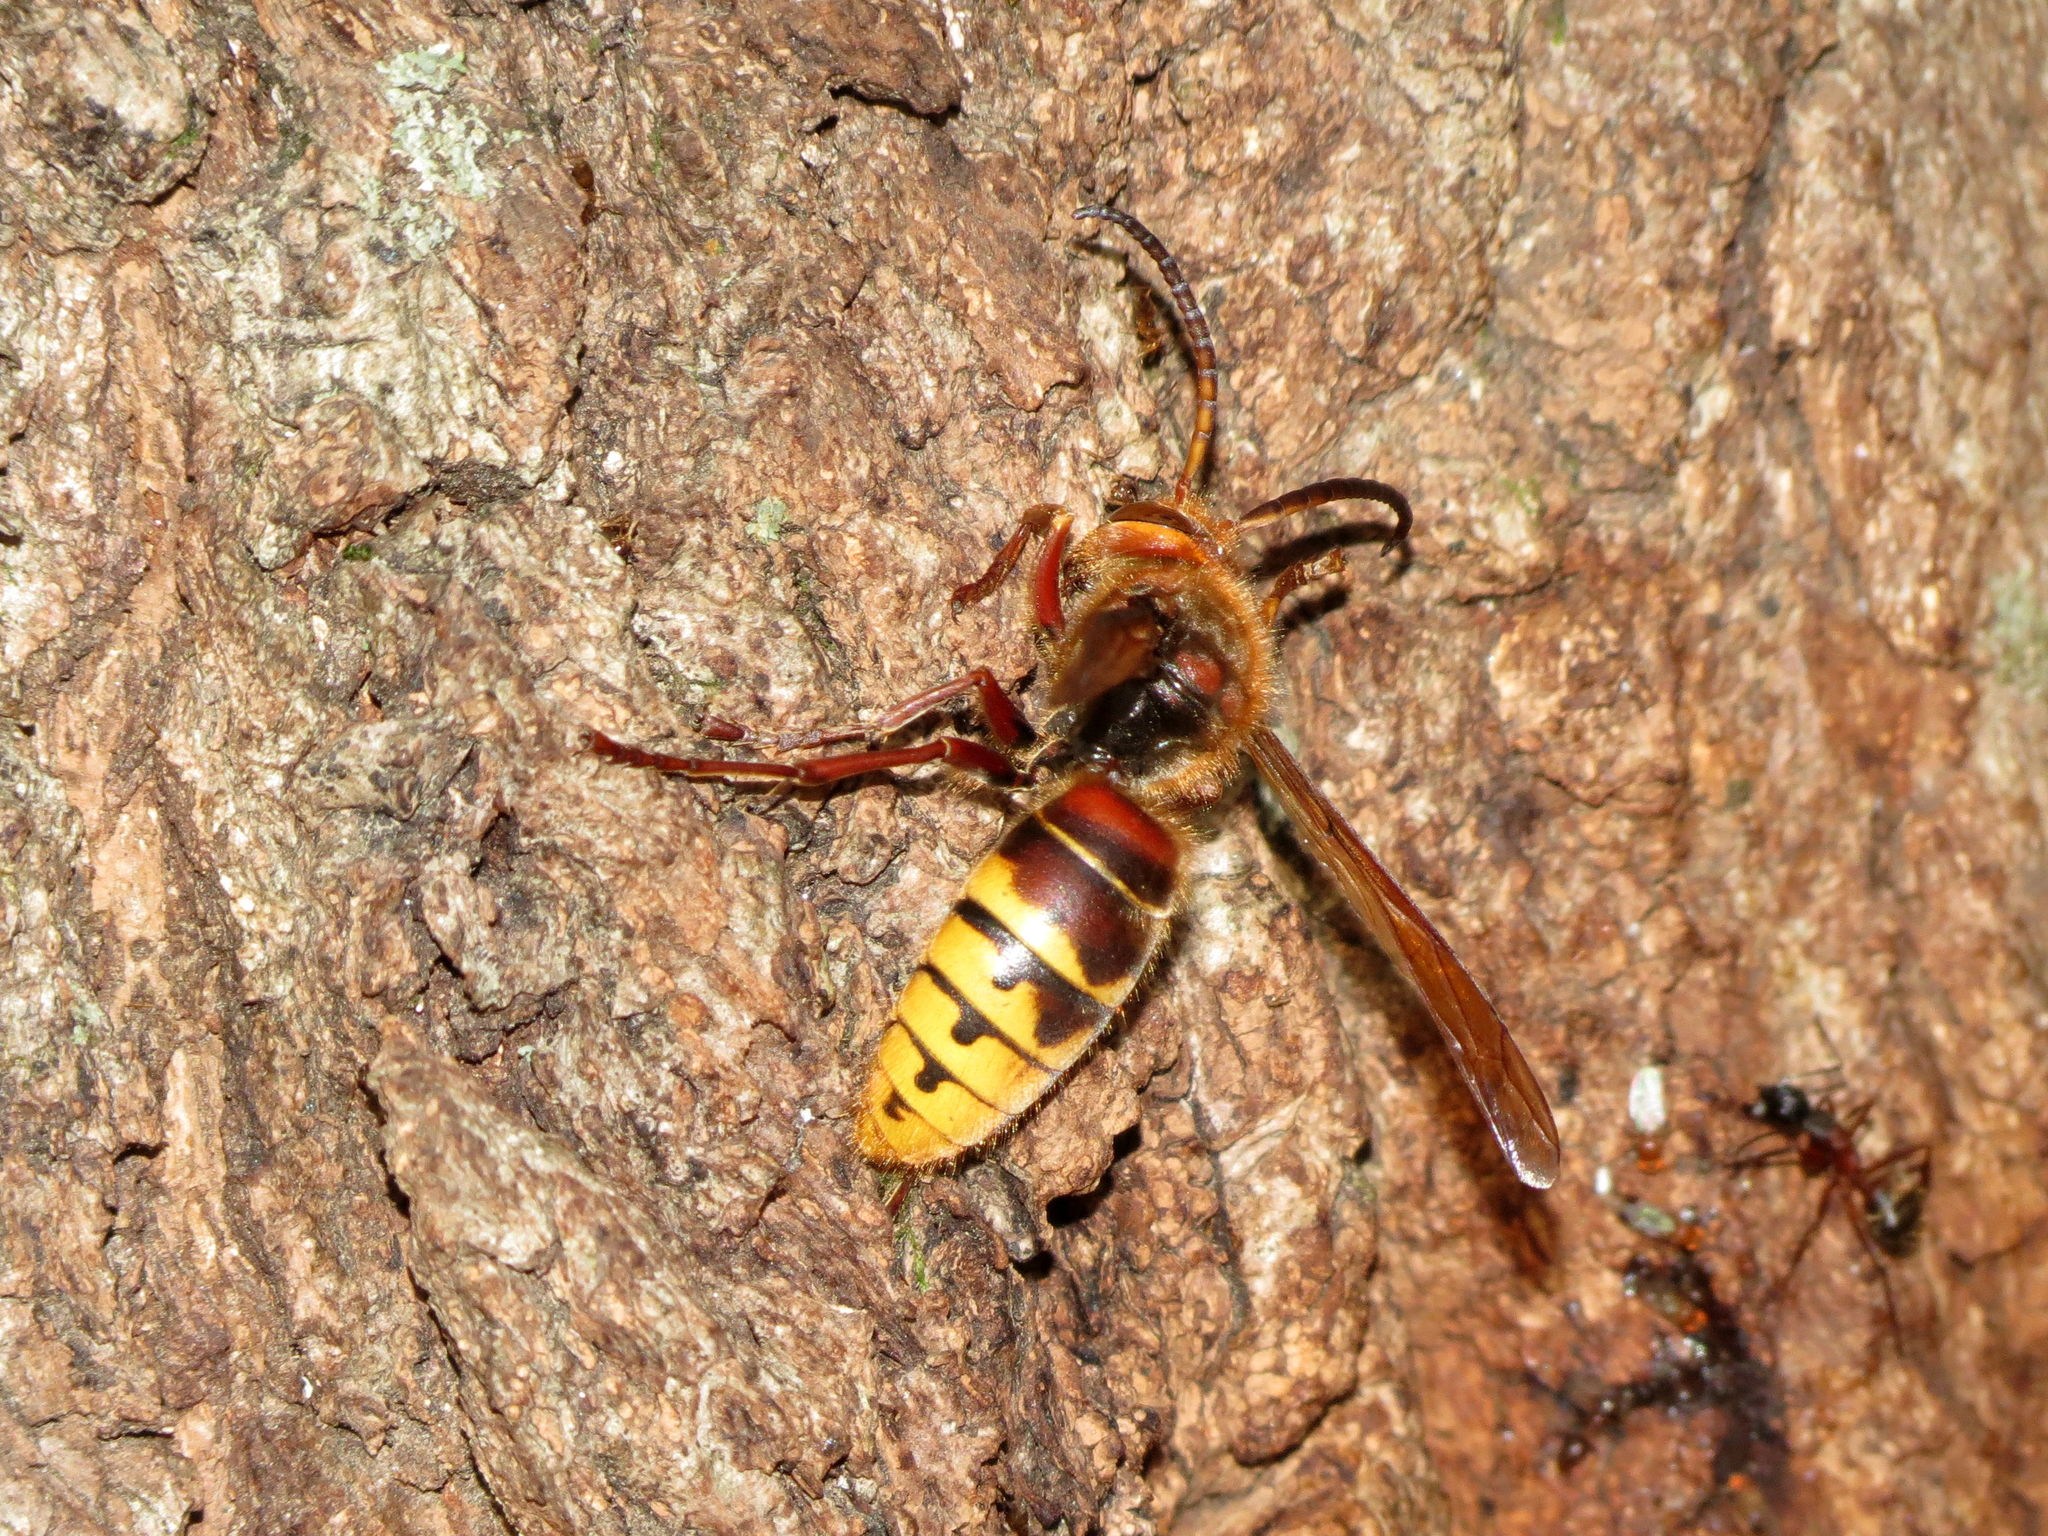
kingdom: Animalia
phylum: Arthropoda
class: Insecta
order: Hymenoptera
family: Vespidae
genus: Vespa
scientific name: Vespa crabro
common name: Hornet
